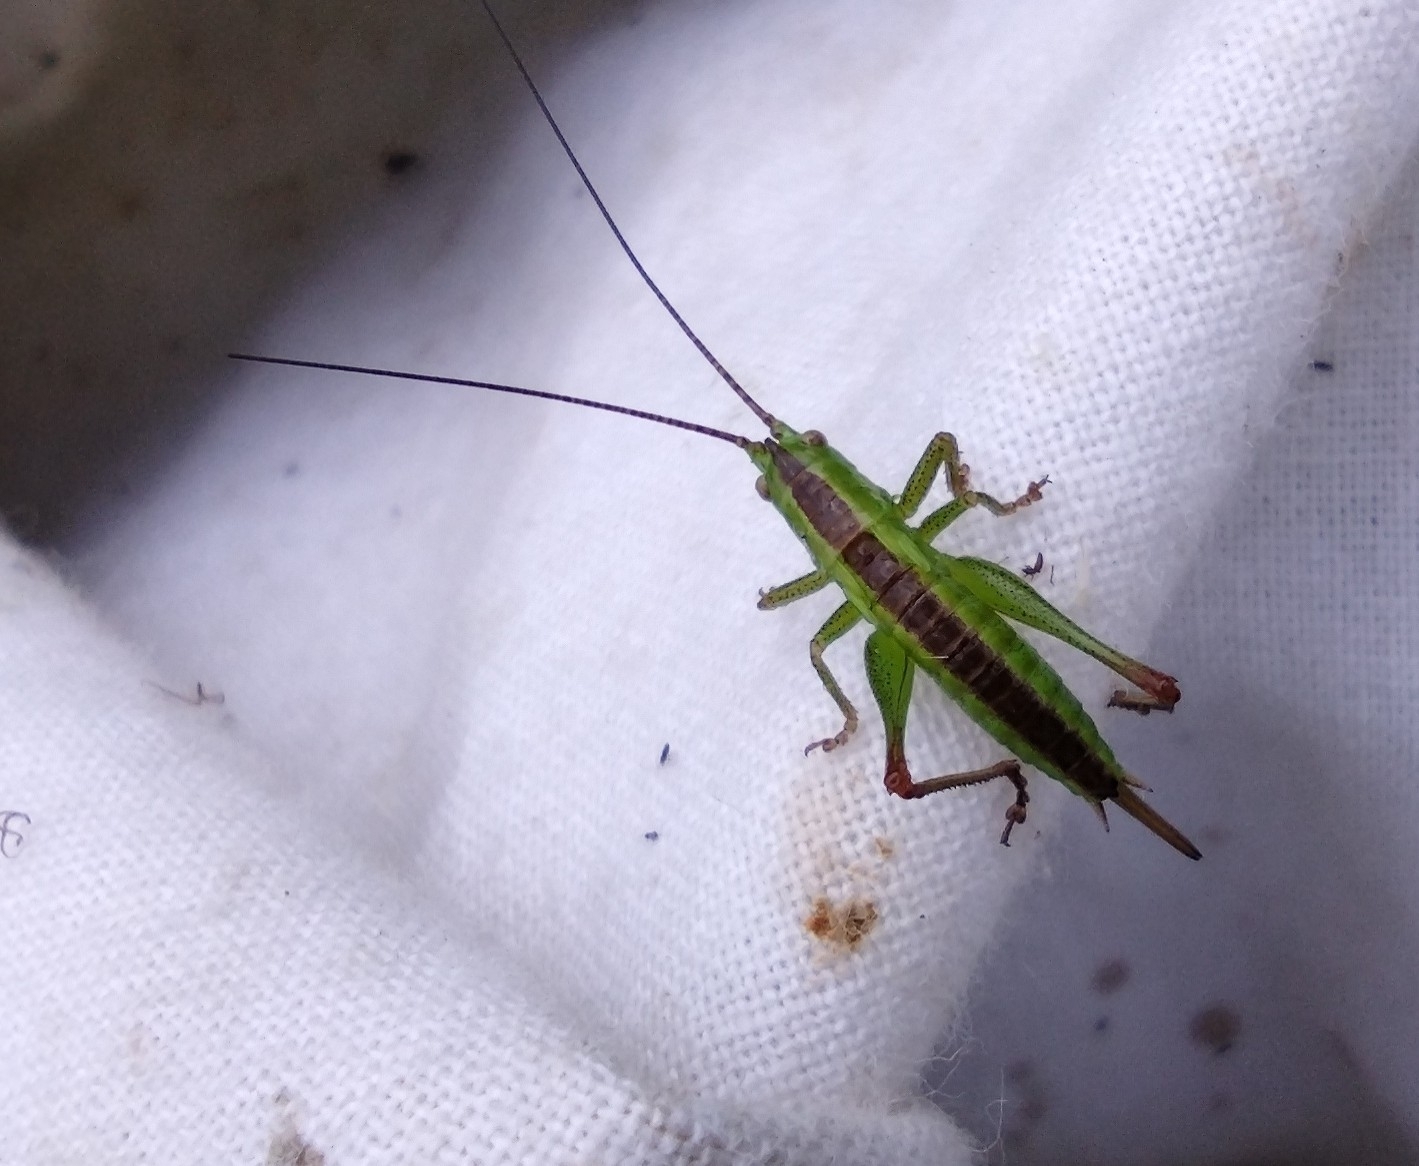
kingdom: Animalia
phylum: Arthropoda
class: Insecta
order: Orthoptera
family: Tettigoniidae
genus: Conocephalus
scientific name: Conocephalus dorsalis
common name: Short-winged conehead
